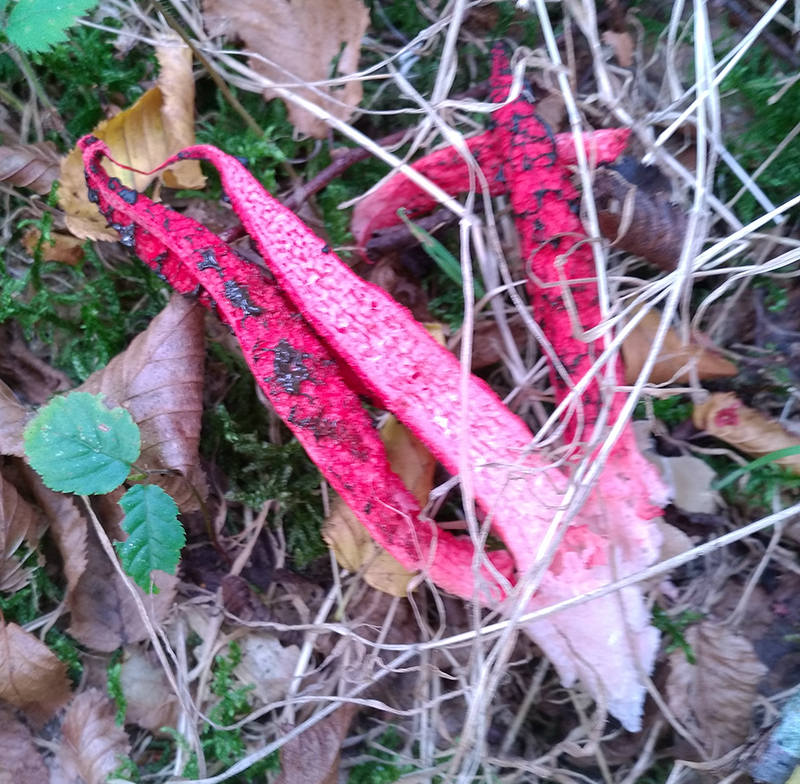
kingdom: Fungi
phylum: Basidiomycota
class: Agaricomycetes
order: Phallales
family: Phallaceae
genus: Clathrus
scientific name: Clathrus archeri
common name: Devil's fingers
